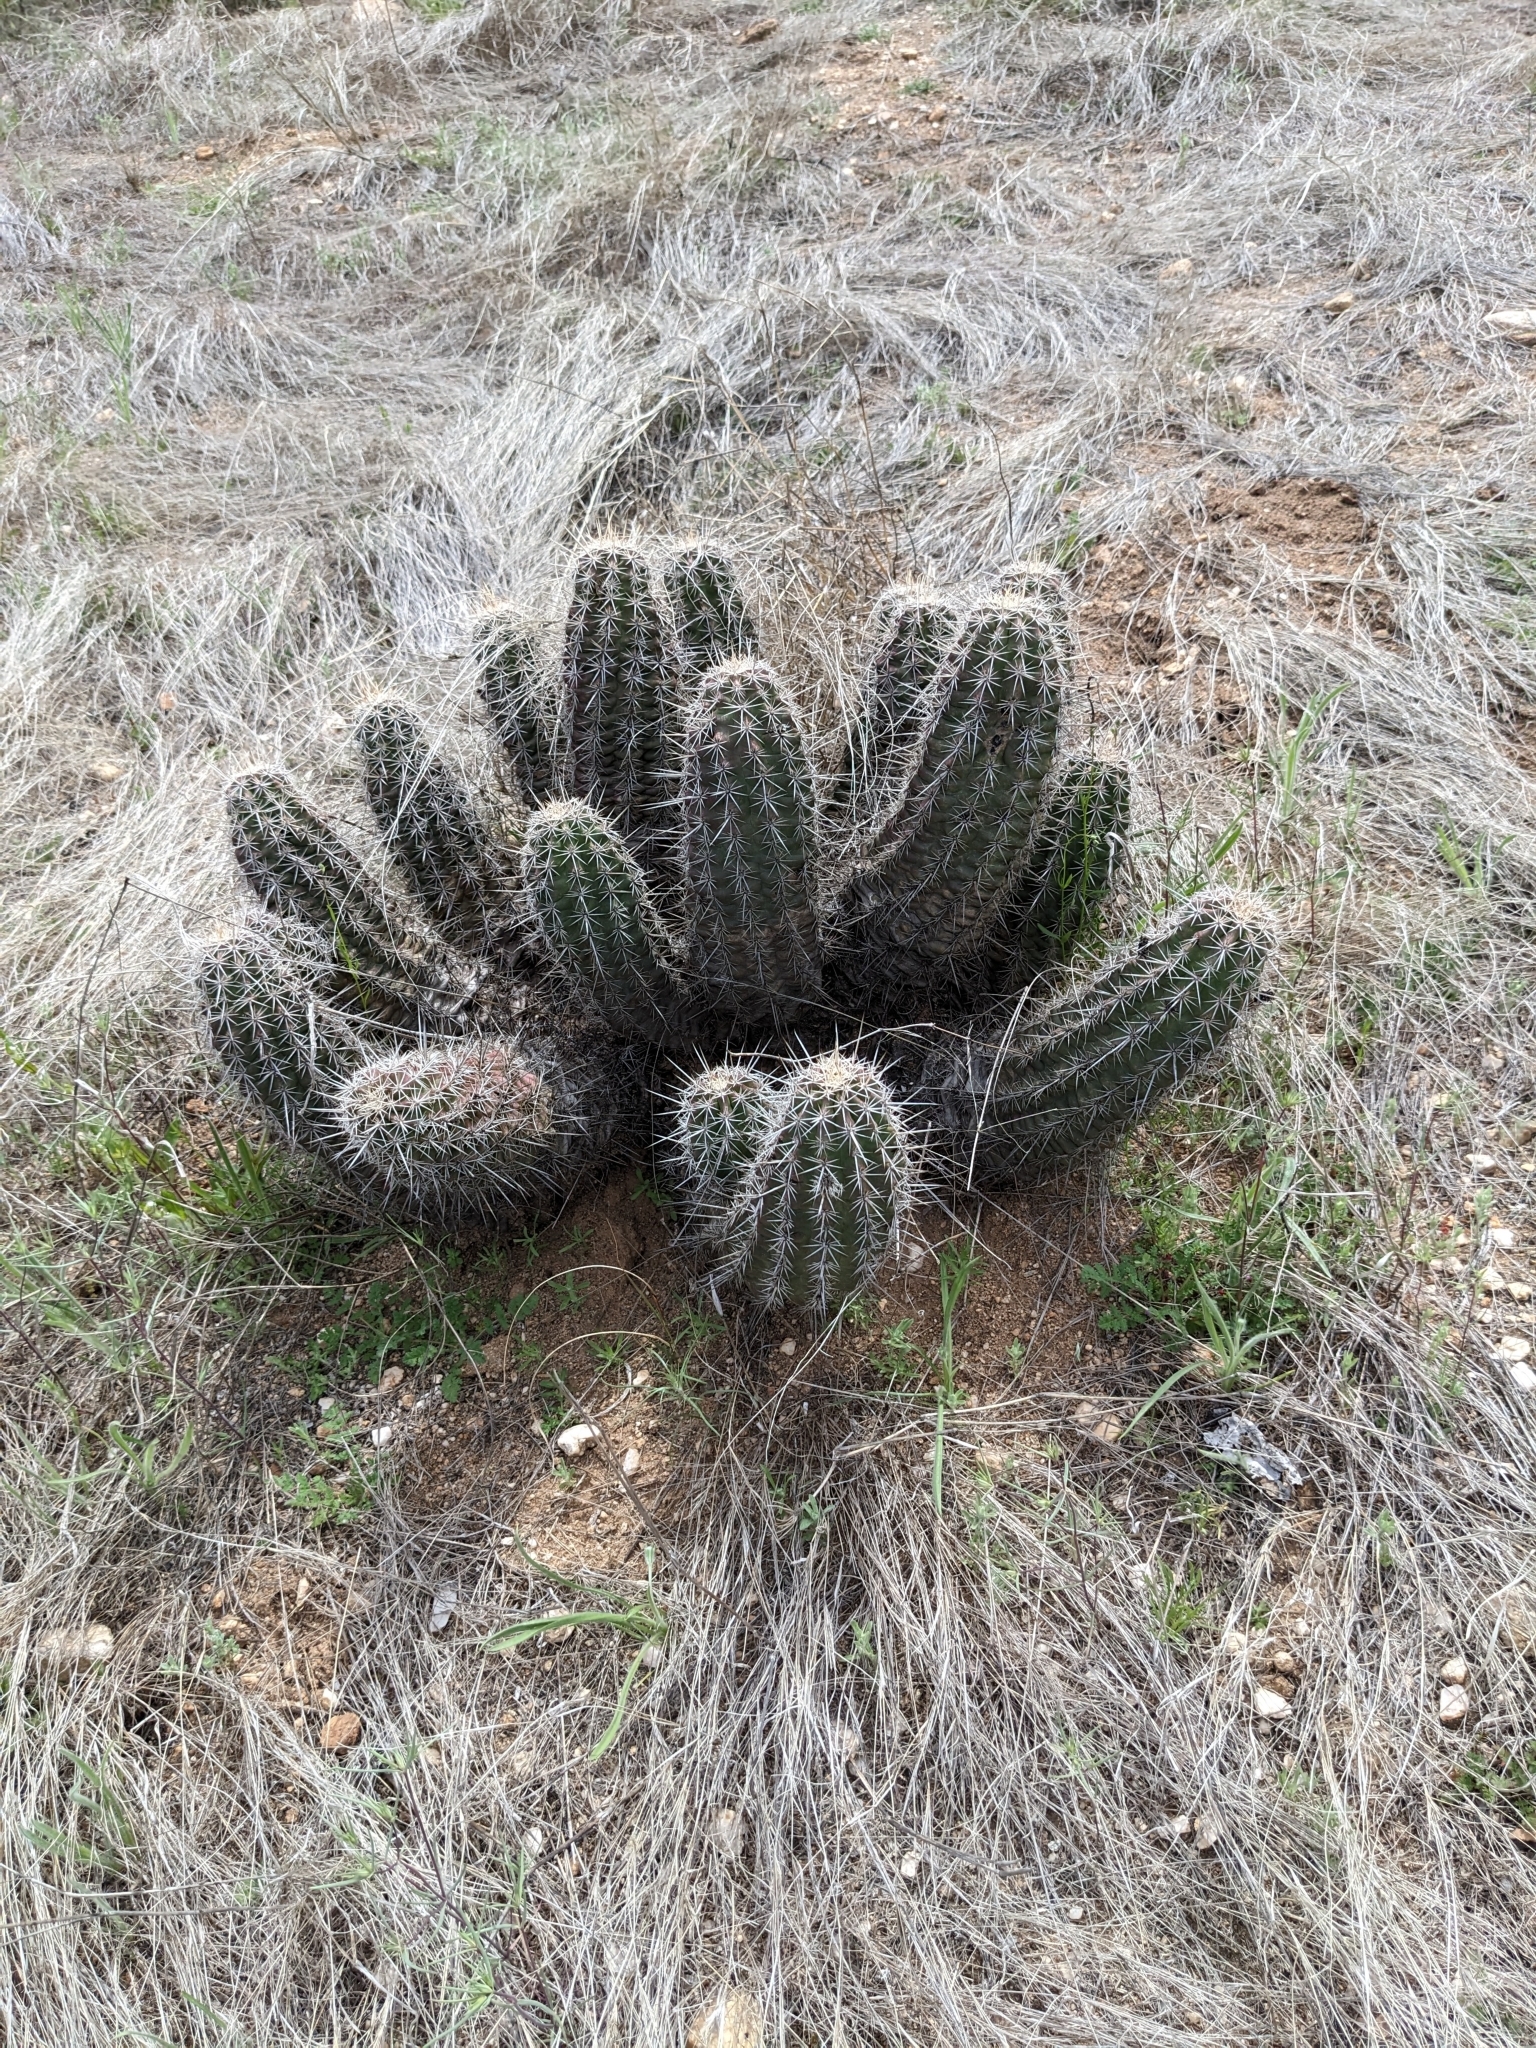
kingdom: Plantae
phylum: Tracheophyta
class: Magnoliopsida
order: Caryophyllales
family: Cactaceae
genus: Echinocereus
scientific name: Echinocereus fasciculatus
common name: Bundle hedgehog
